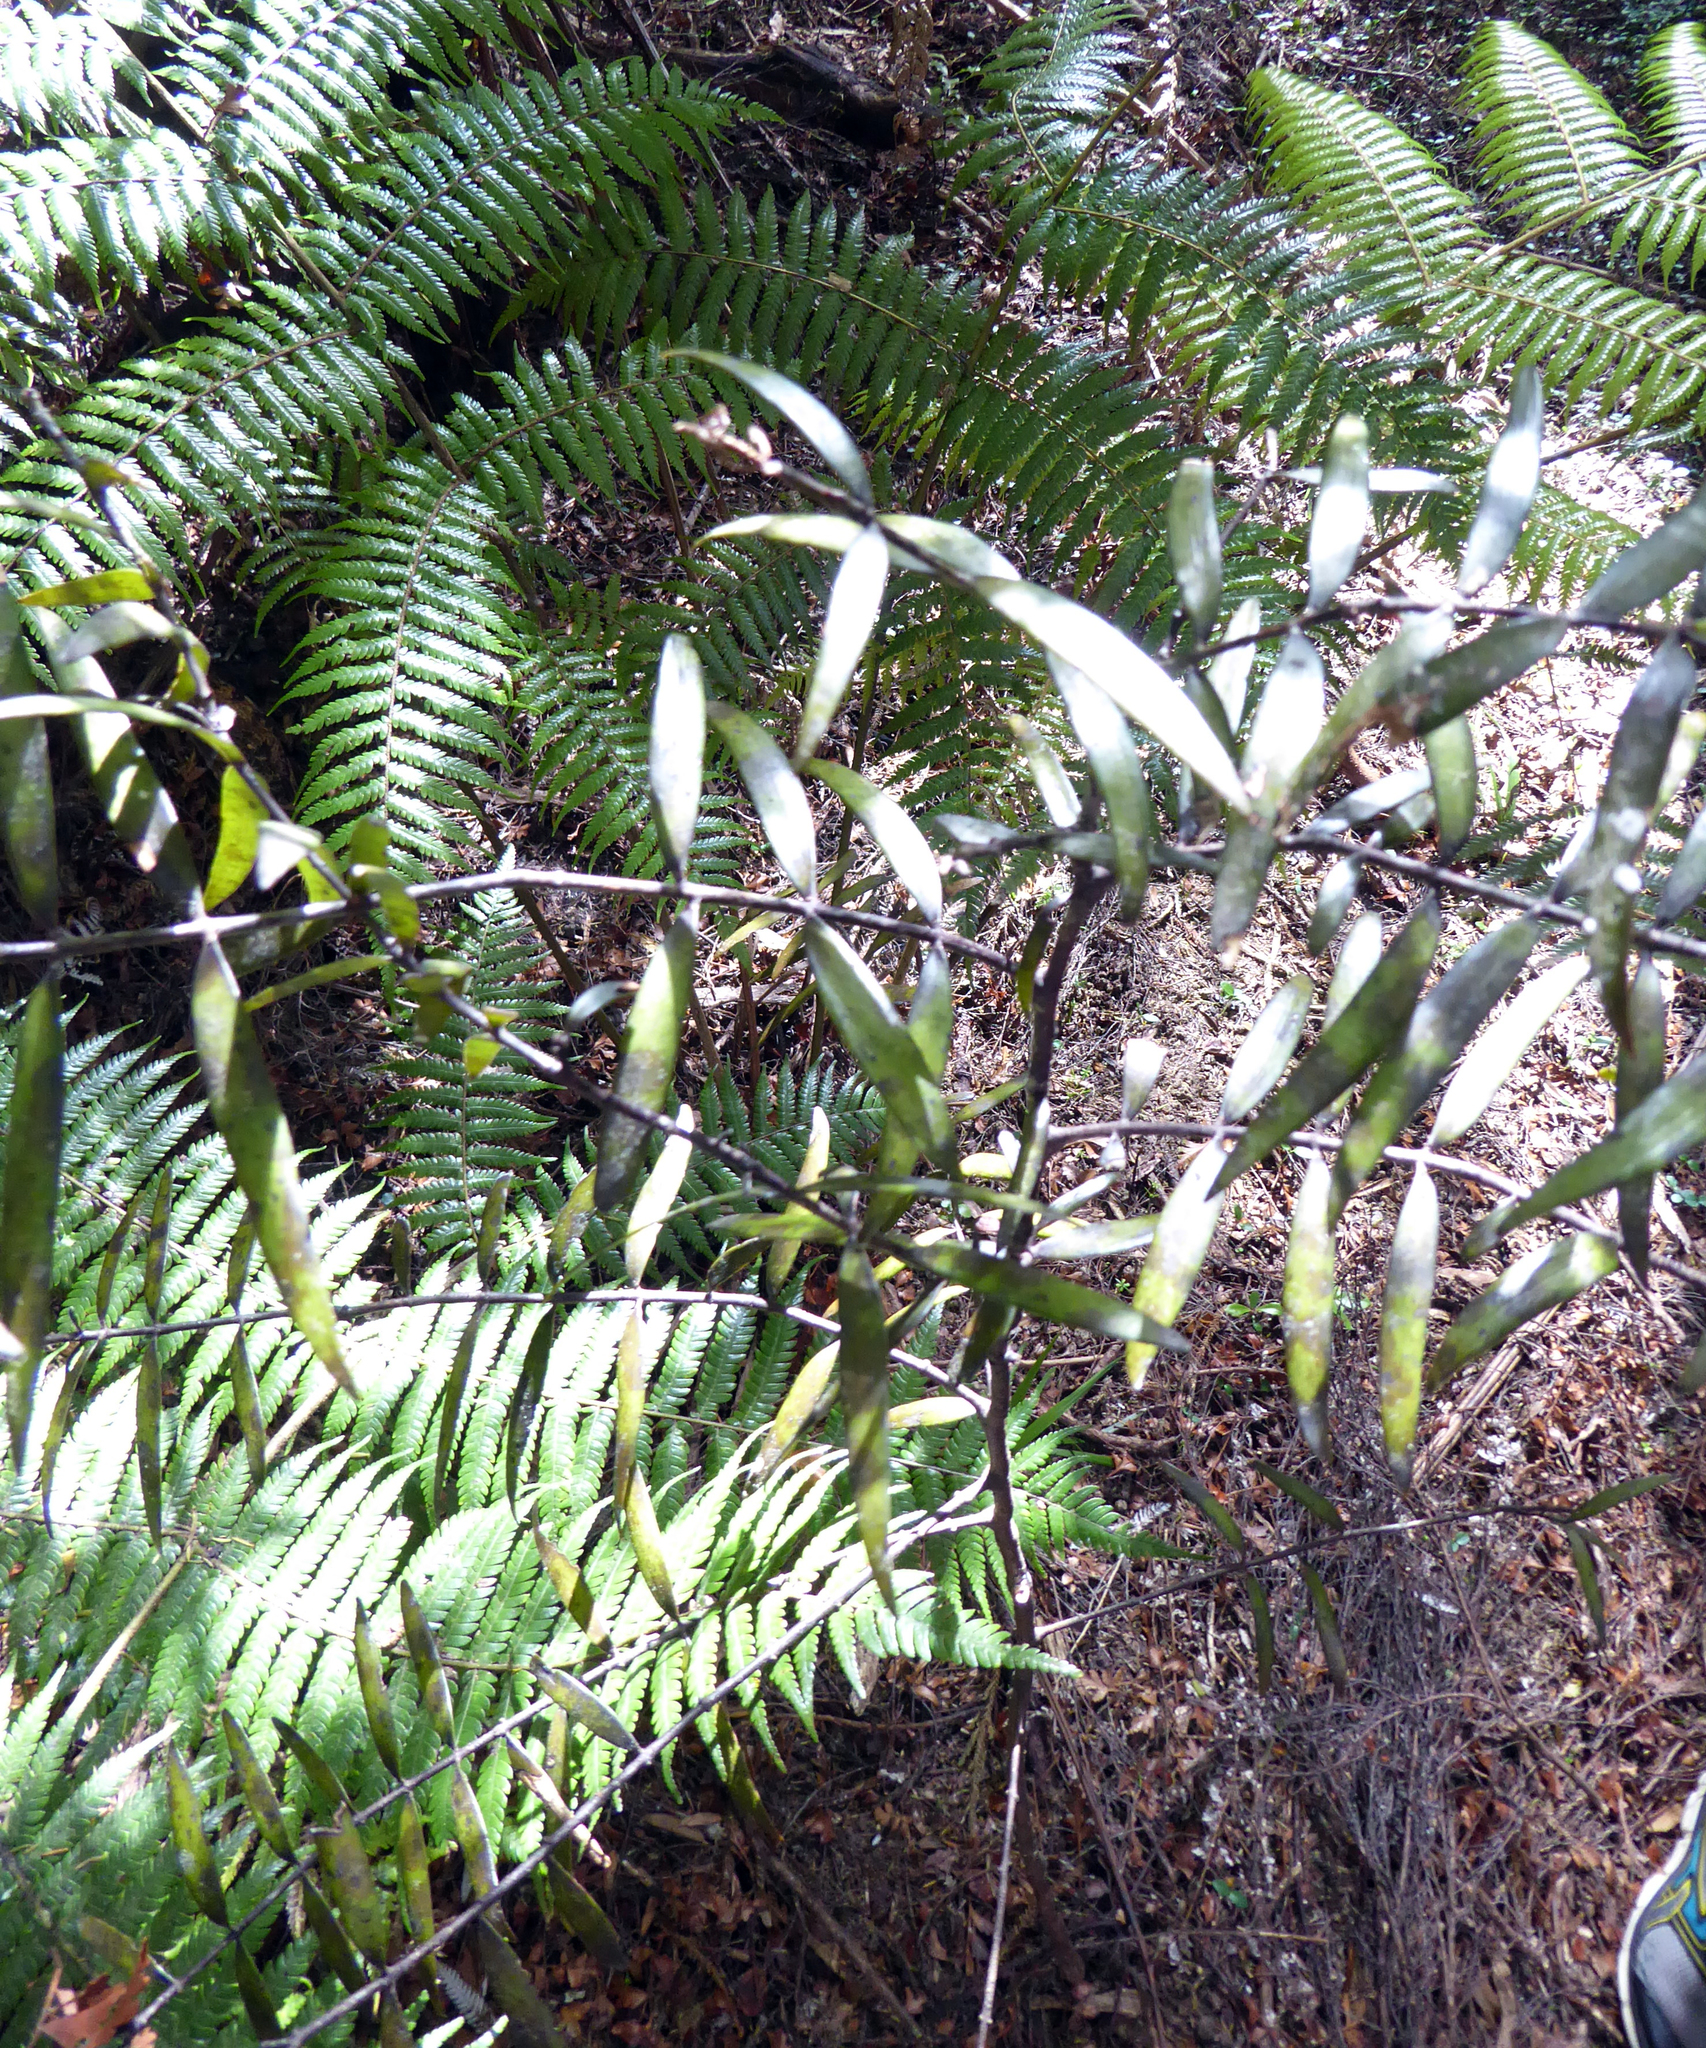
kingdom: Plantae
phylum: Tracheophyta
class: Pinopsida
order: Pinales
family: Araucariaceae
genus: Agathis
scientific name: Agathis australis
